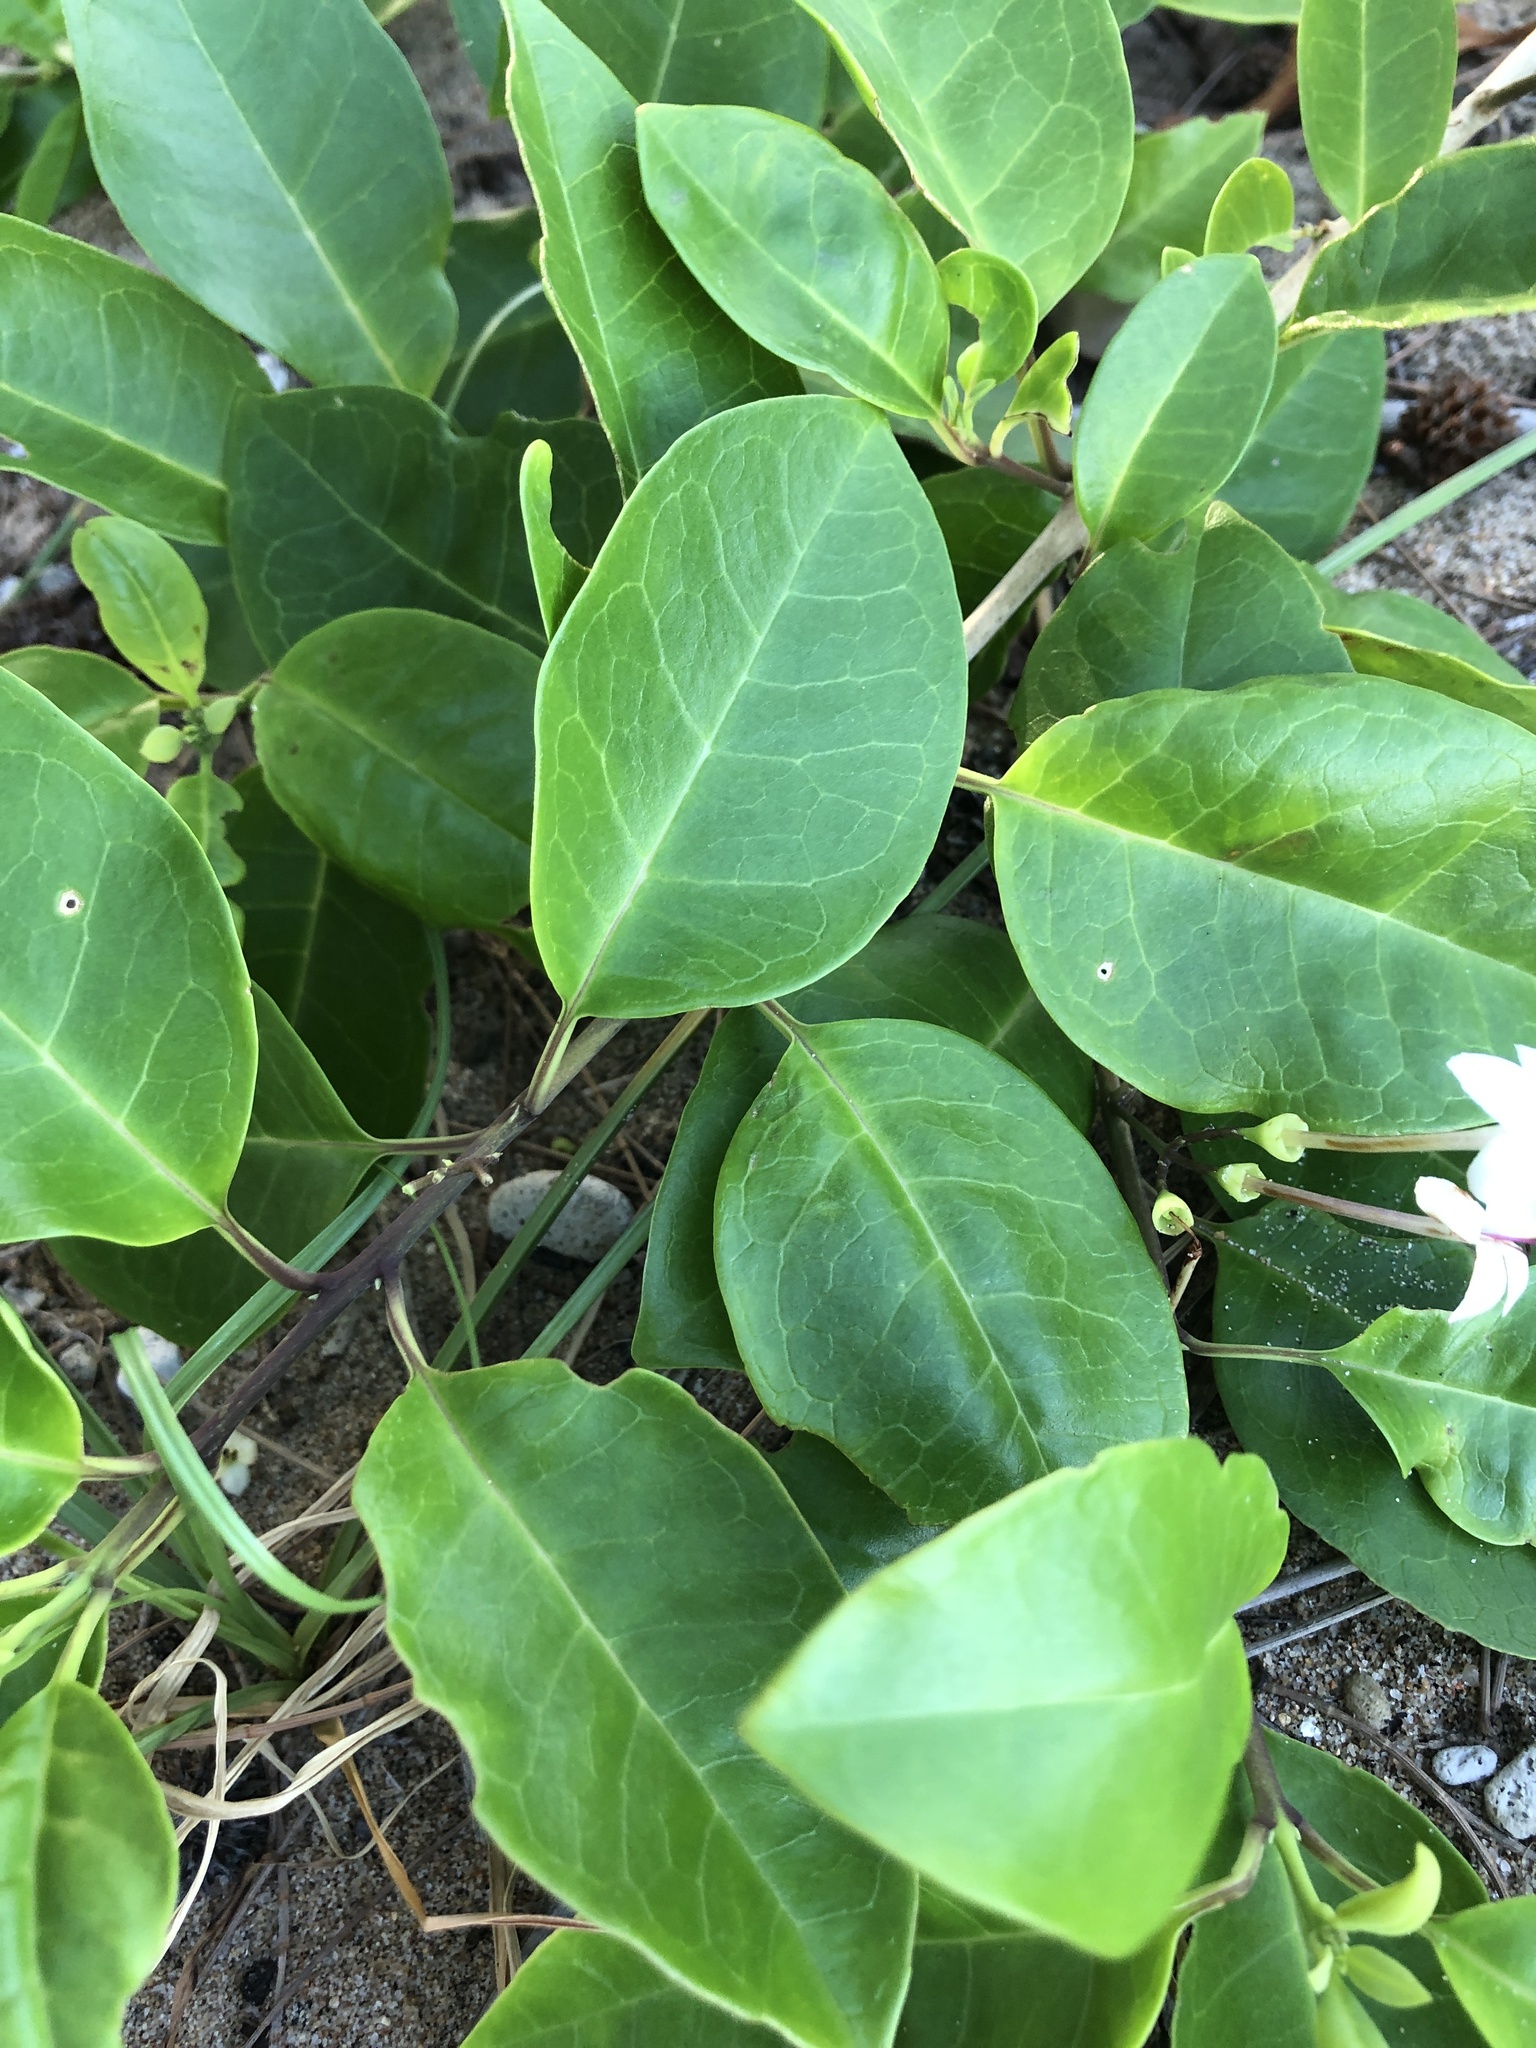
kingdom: Plantae
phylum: Tracheophyta
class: Magnoliopsida
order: Lamiales
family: Lamiaceae
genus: Volkameria
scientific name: Volkameria inermis
